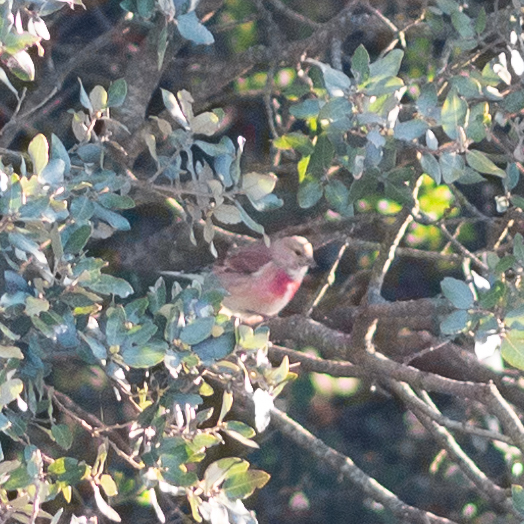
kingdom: Animalia
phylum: Chordata
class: Aves
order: Passeriformes
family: Fringillidae
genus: Linaria
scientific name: Linaria cannabina
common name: Common linnet
